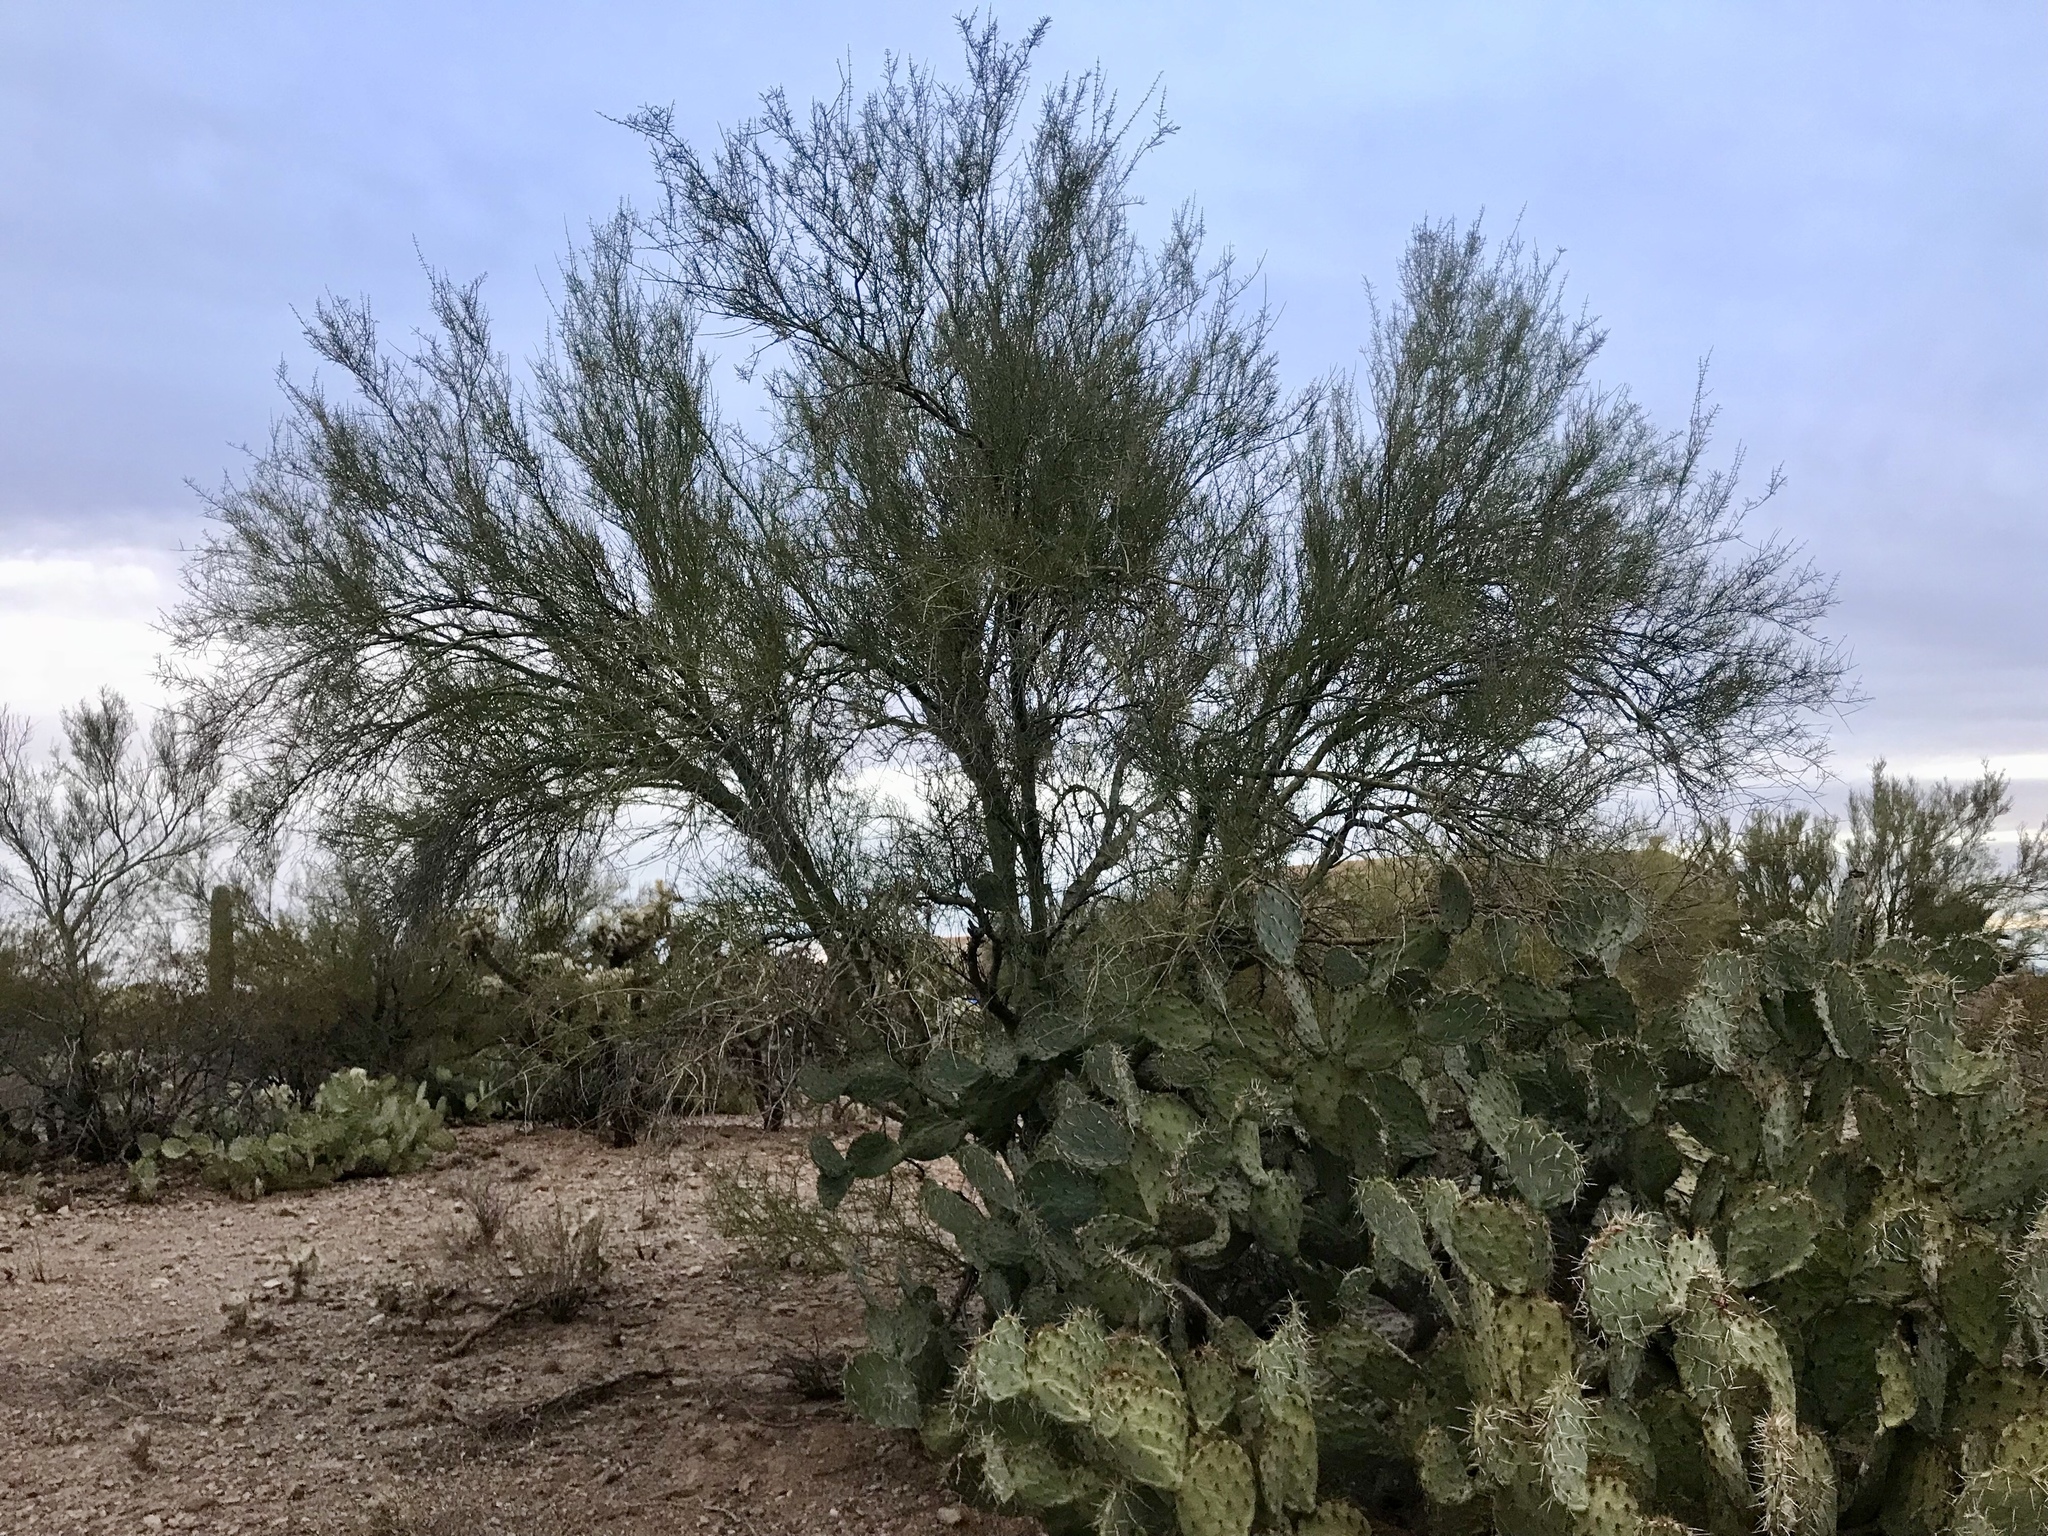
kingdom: Plantae
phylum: Tracheophyta
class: Magnoliopsida
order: Fabales
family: Fabaceae
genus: Parkinsonia
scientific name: Parkinsonia florida
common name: Blue paloverde
